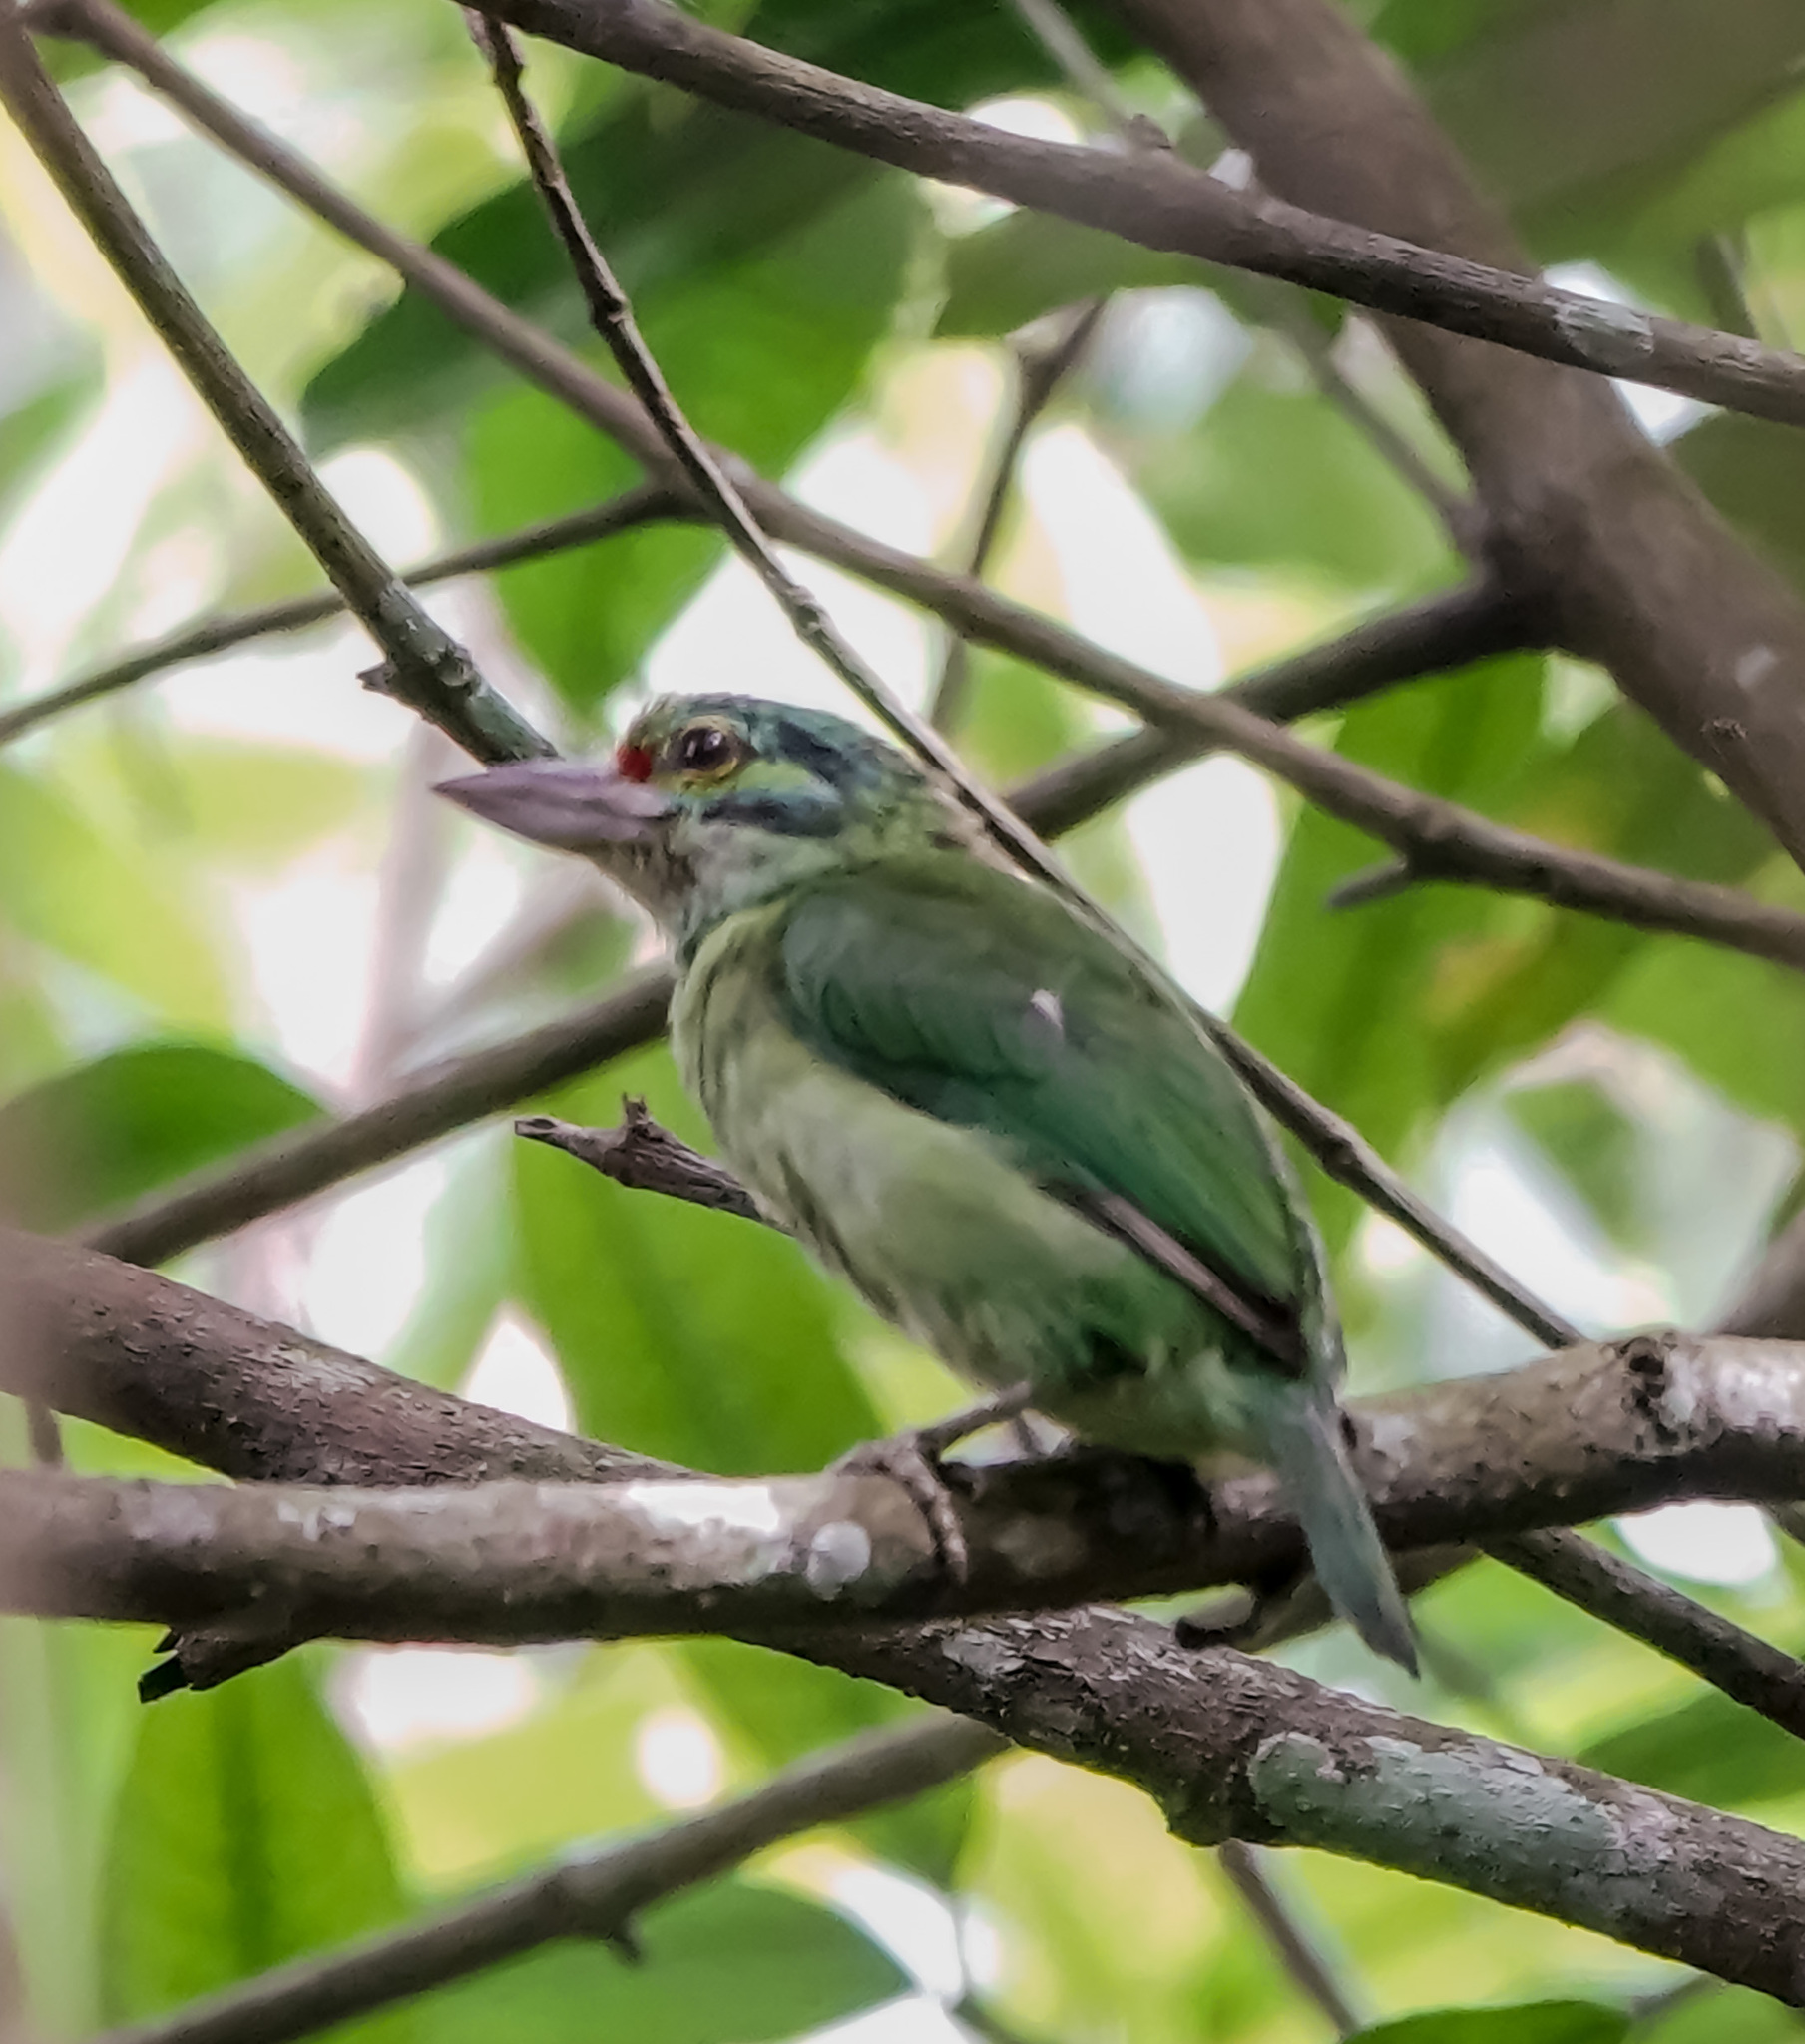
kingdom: Animalia
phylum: Chordata
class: Aves
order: Piciformes
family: Megalaimidae
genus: Psilopogon
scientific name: Psilopogon incognitus
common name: Moustached barbet
